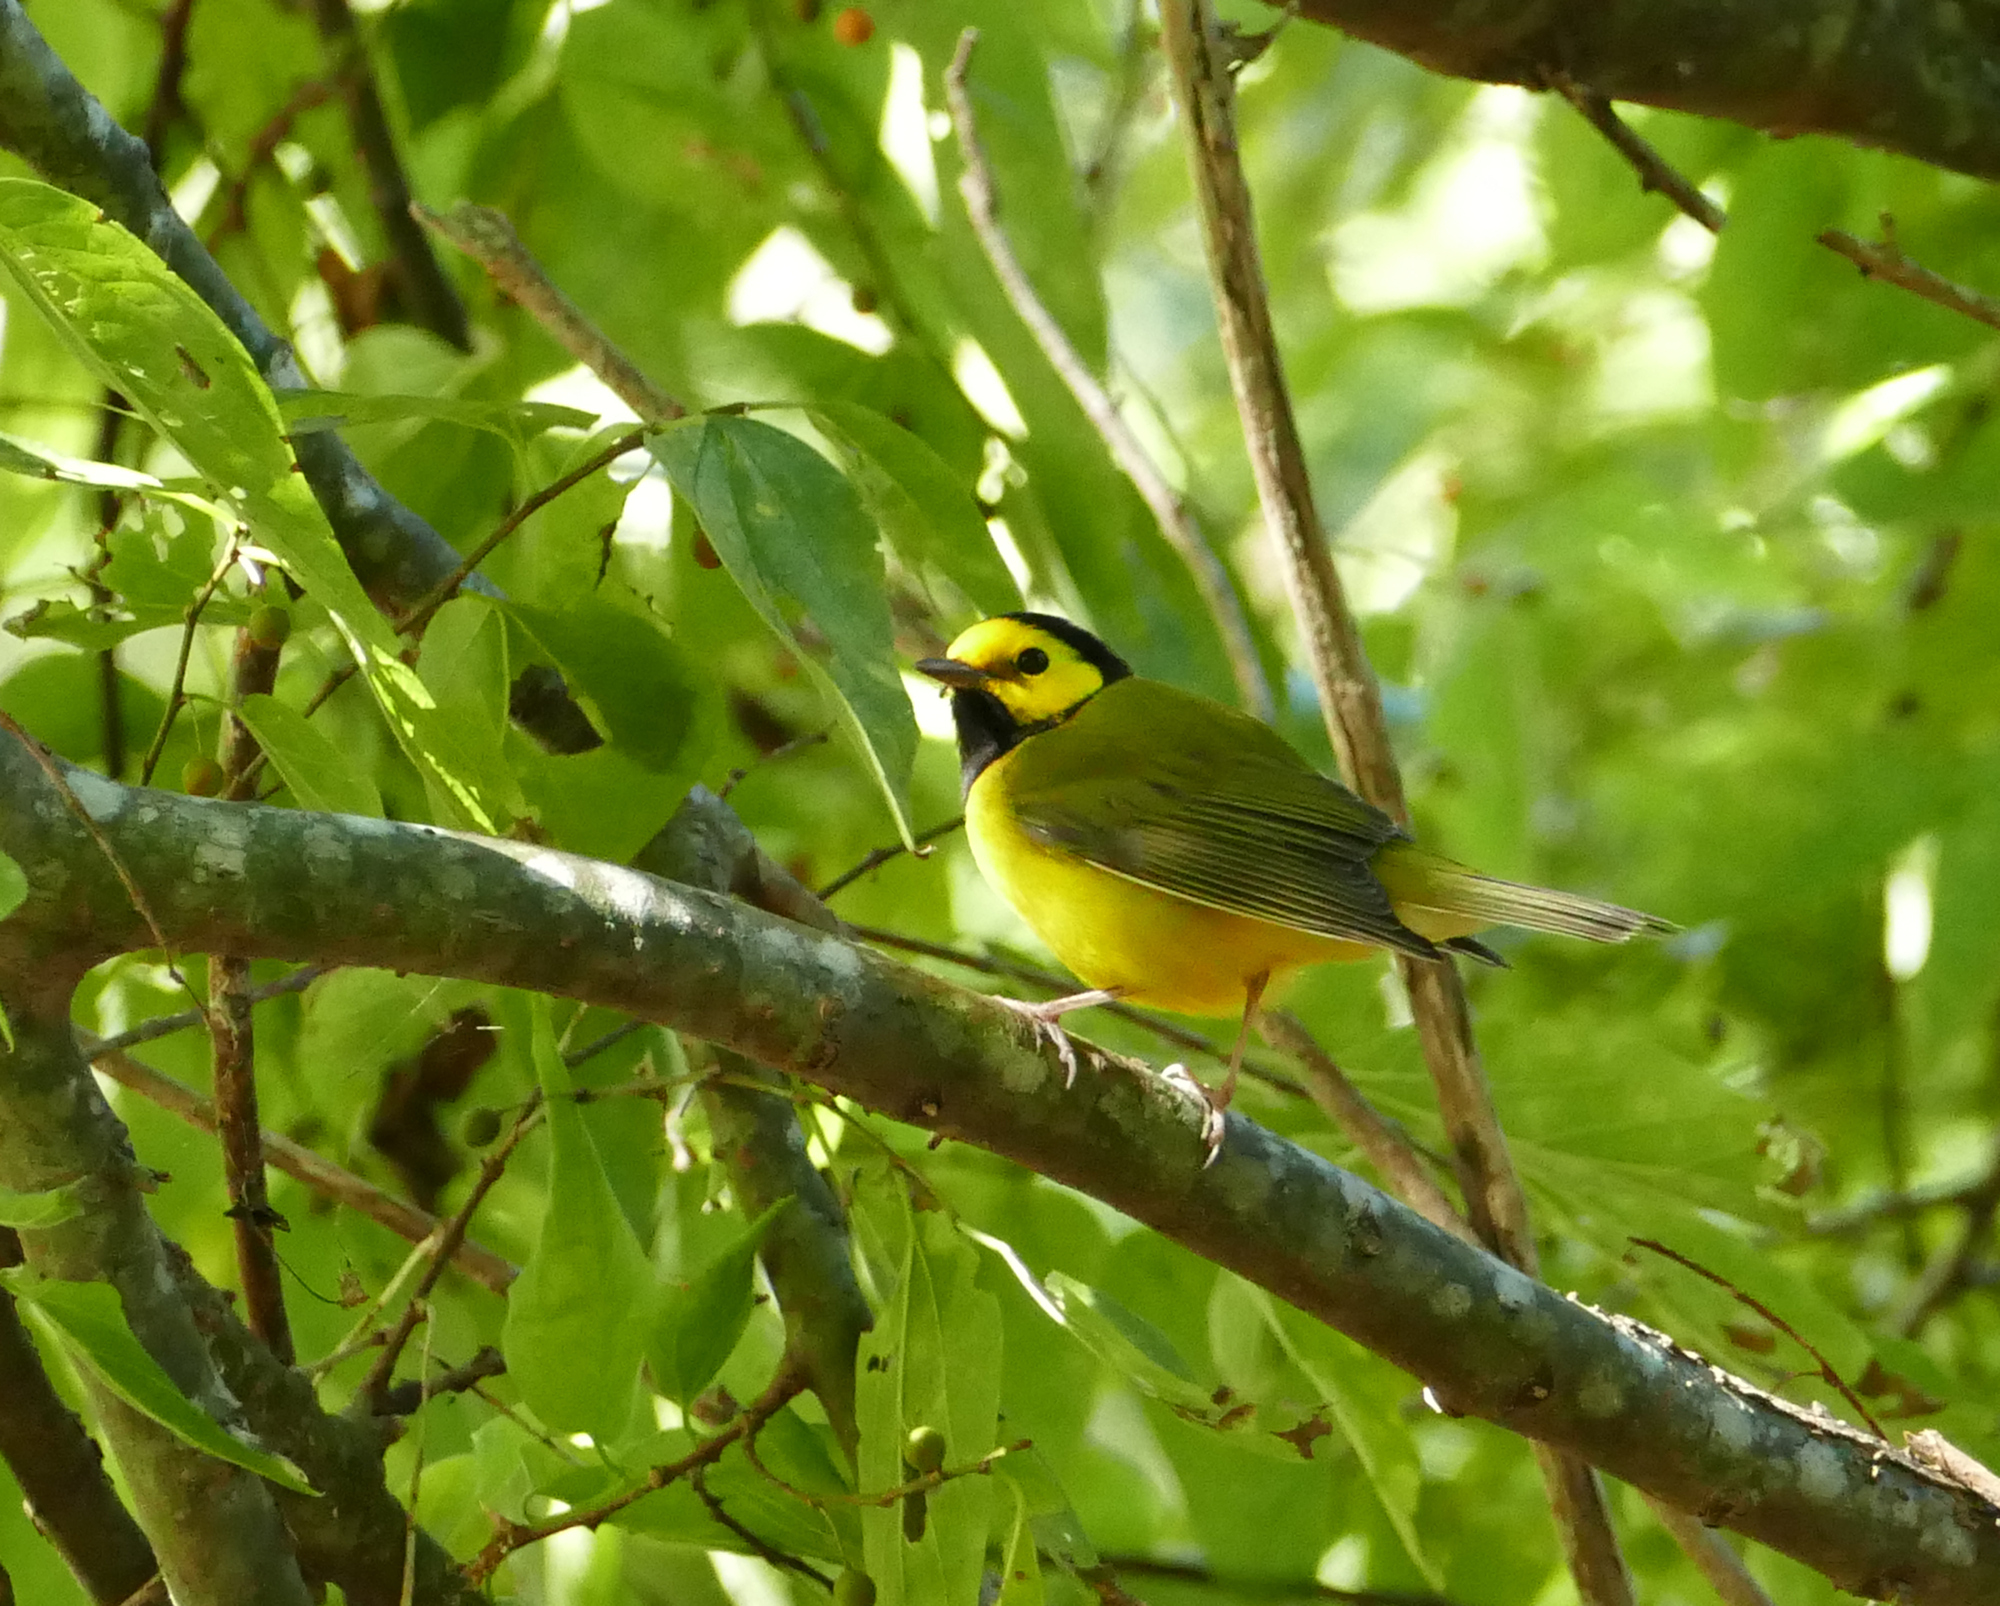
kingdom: Animalia
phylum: Chordata
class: Aves
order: Passeriformes
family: Parulidae
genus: Setophaga
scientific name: Setophaga citrina
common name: Hooded warbler
